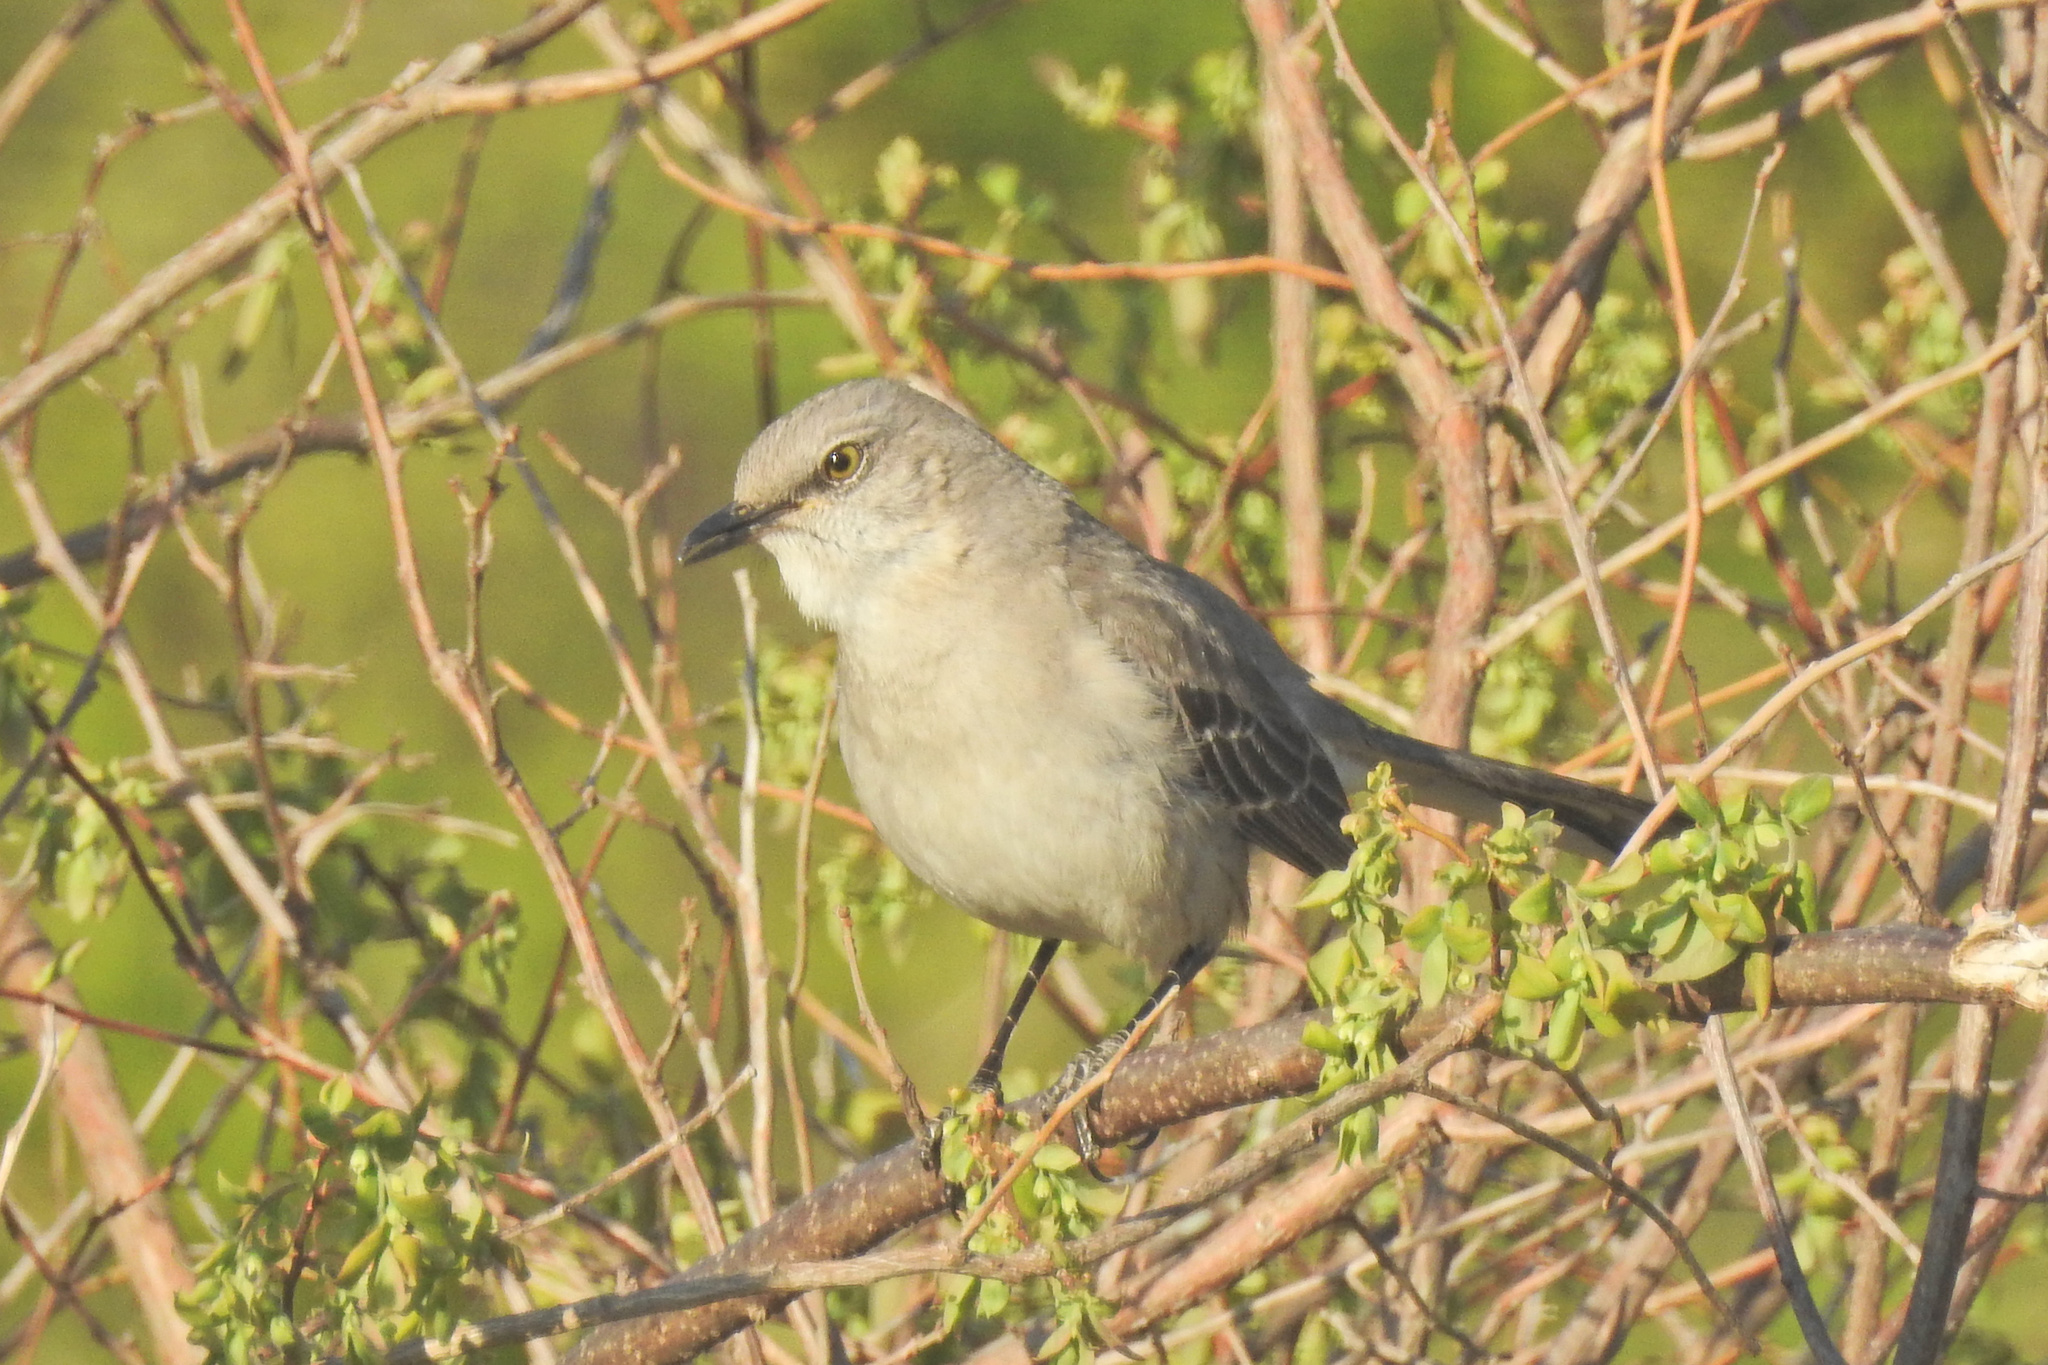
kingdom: Animalia
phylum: Chordata
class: Aves
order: Passeriformes
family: Mimidae
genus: Mimus
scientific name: Mimus polyglottos
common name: Northern mockingbird
